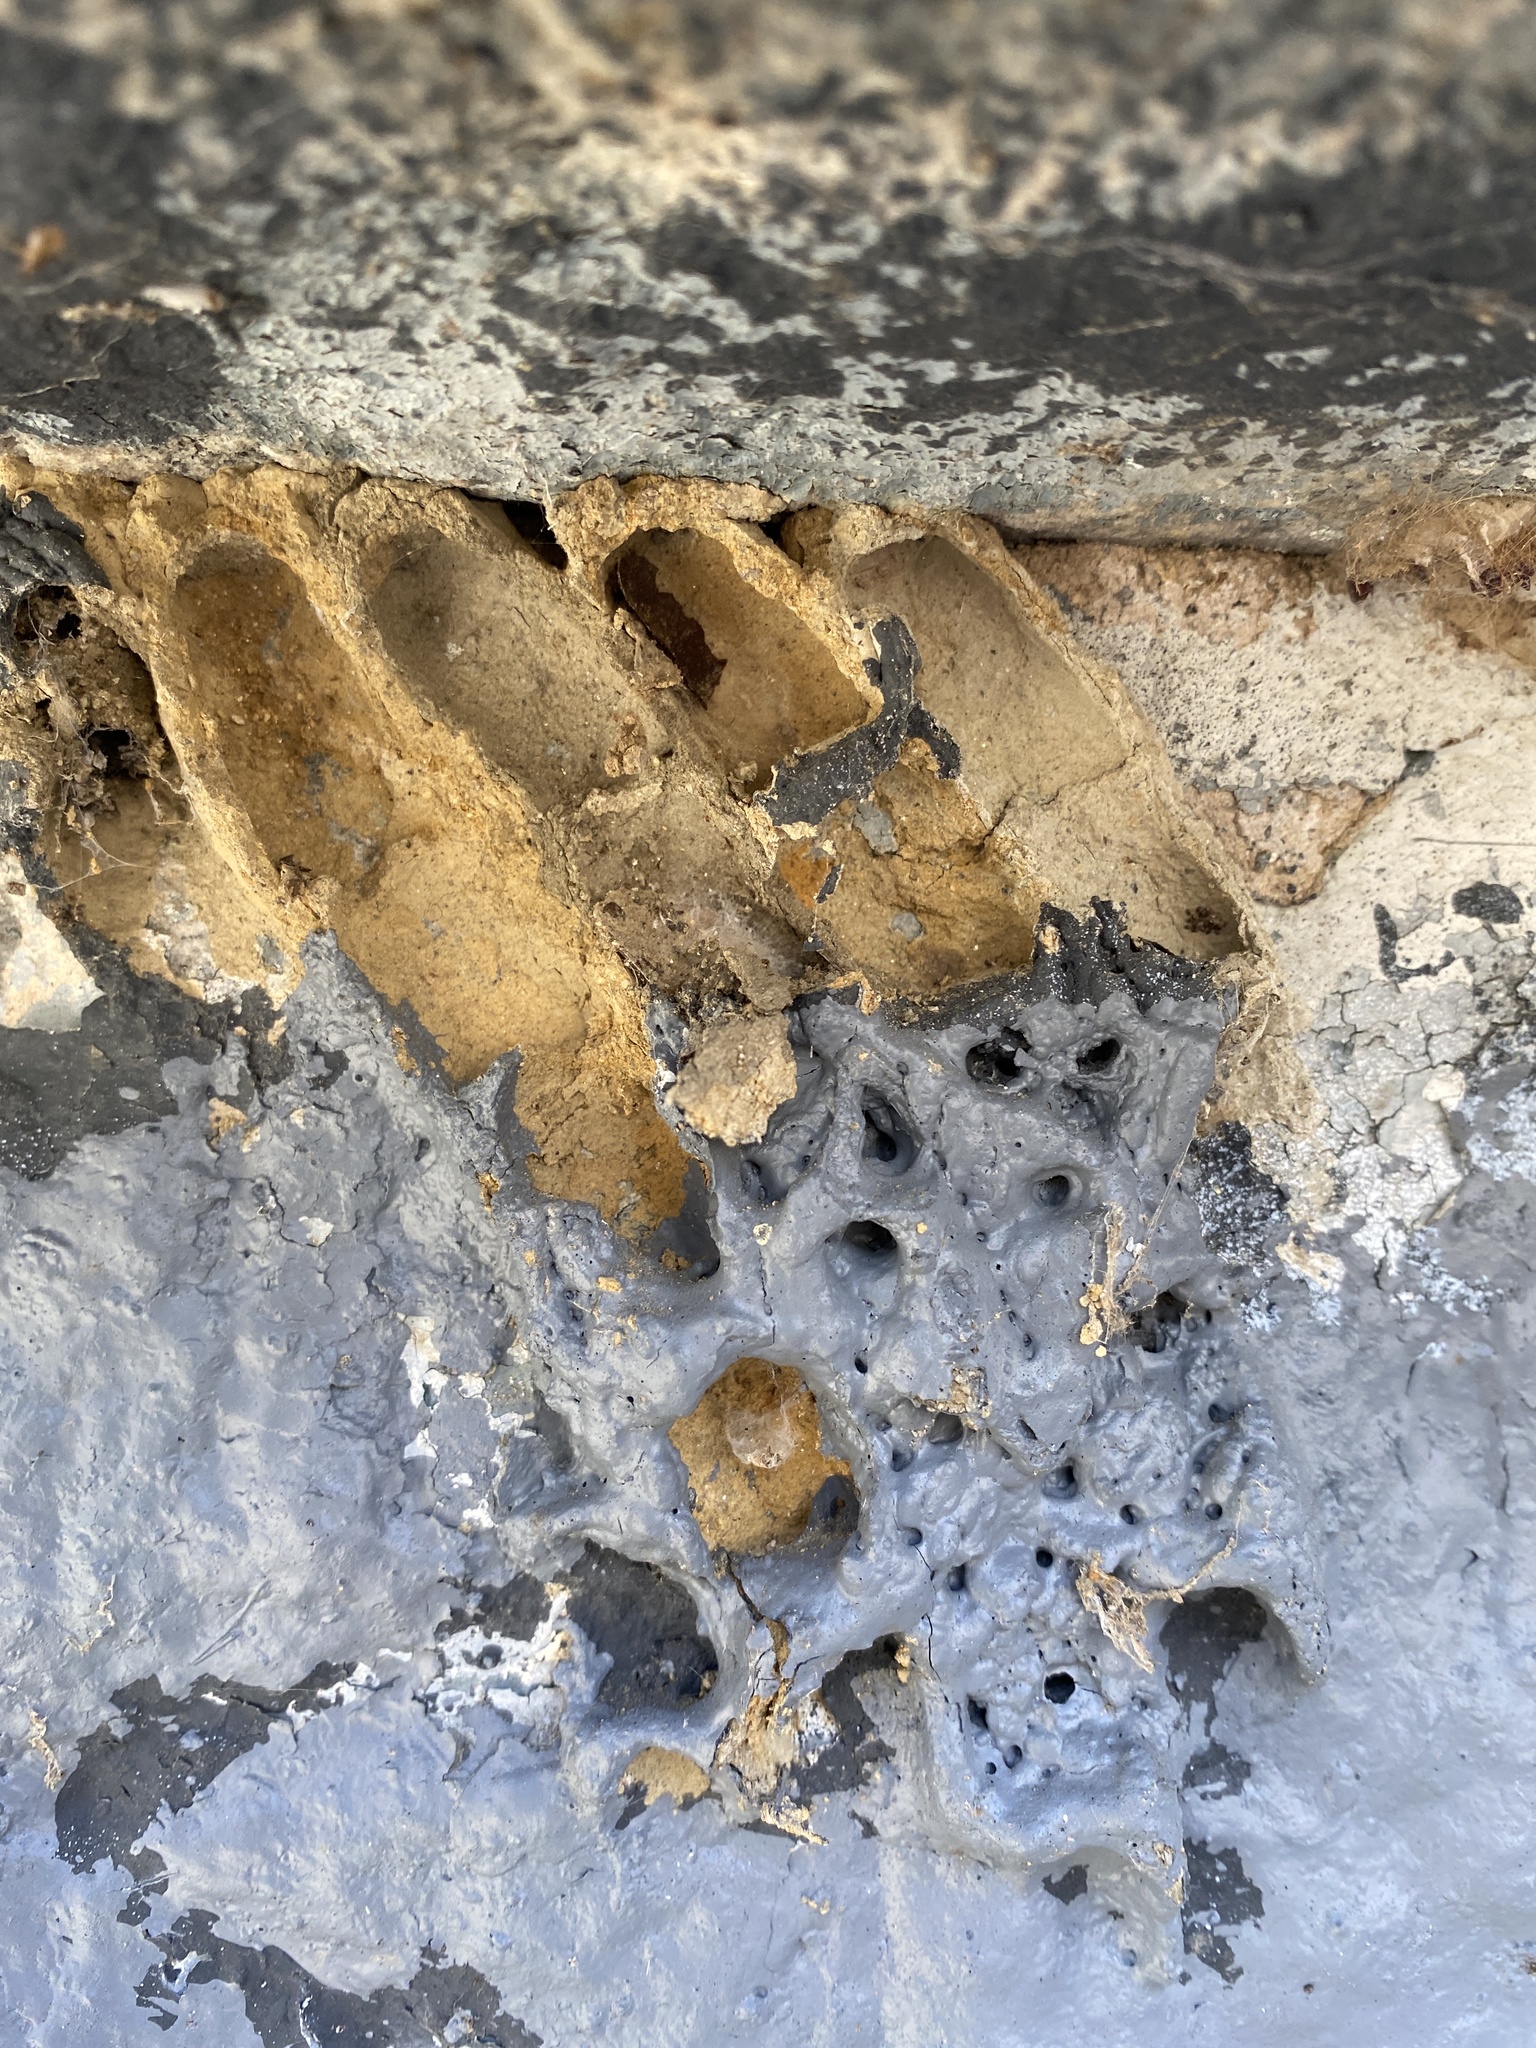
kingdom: Animalia
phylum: Arthropoda
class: Insecta
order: Hymenoptera
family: Crabronidae
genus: Trypoxylon
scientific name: Trypoxylon politum
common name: Organ-pipe mud-dauber wasp
